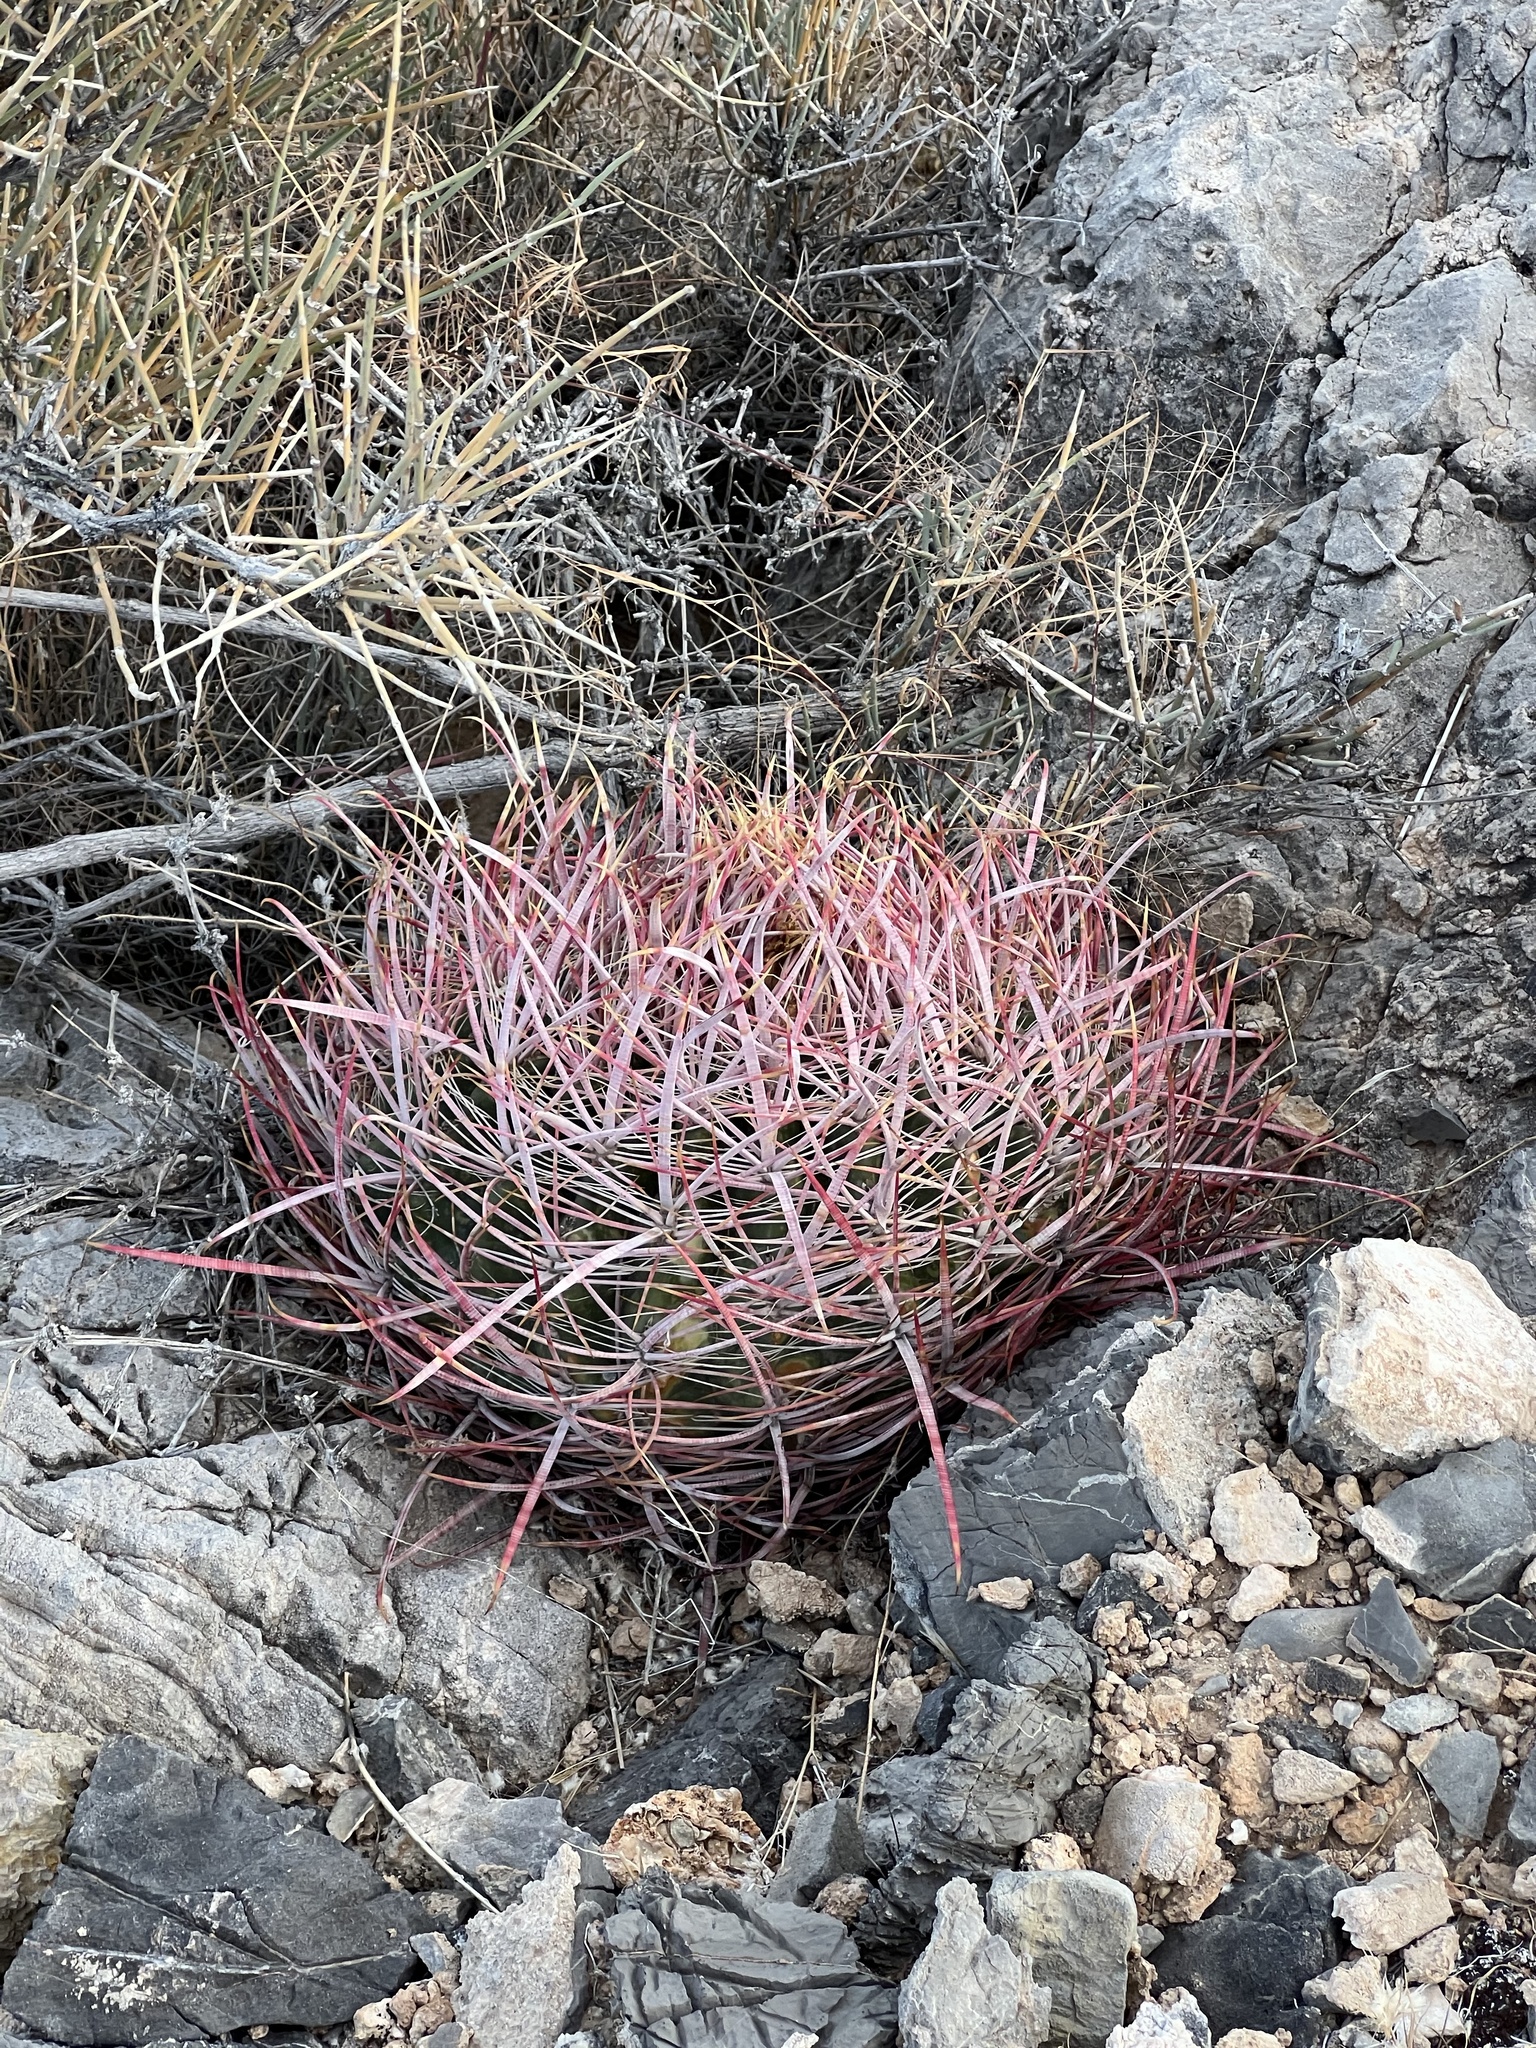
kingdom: Plantae
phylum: Tracheophyta
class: Magnoliopsida
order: Caryophyllales
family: Cactaceae
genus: Ferocactus
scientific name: Ferocactus cylindraceus
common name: California barrel cactus
